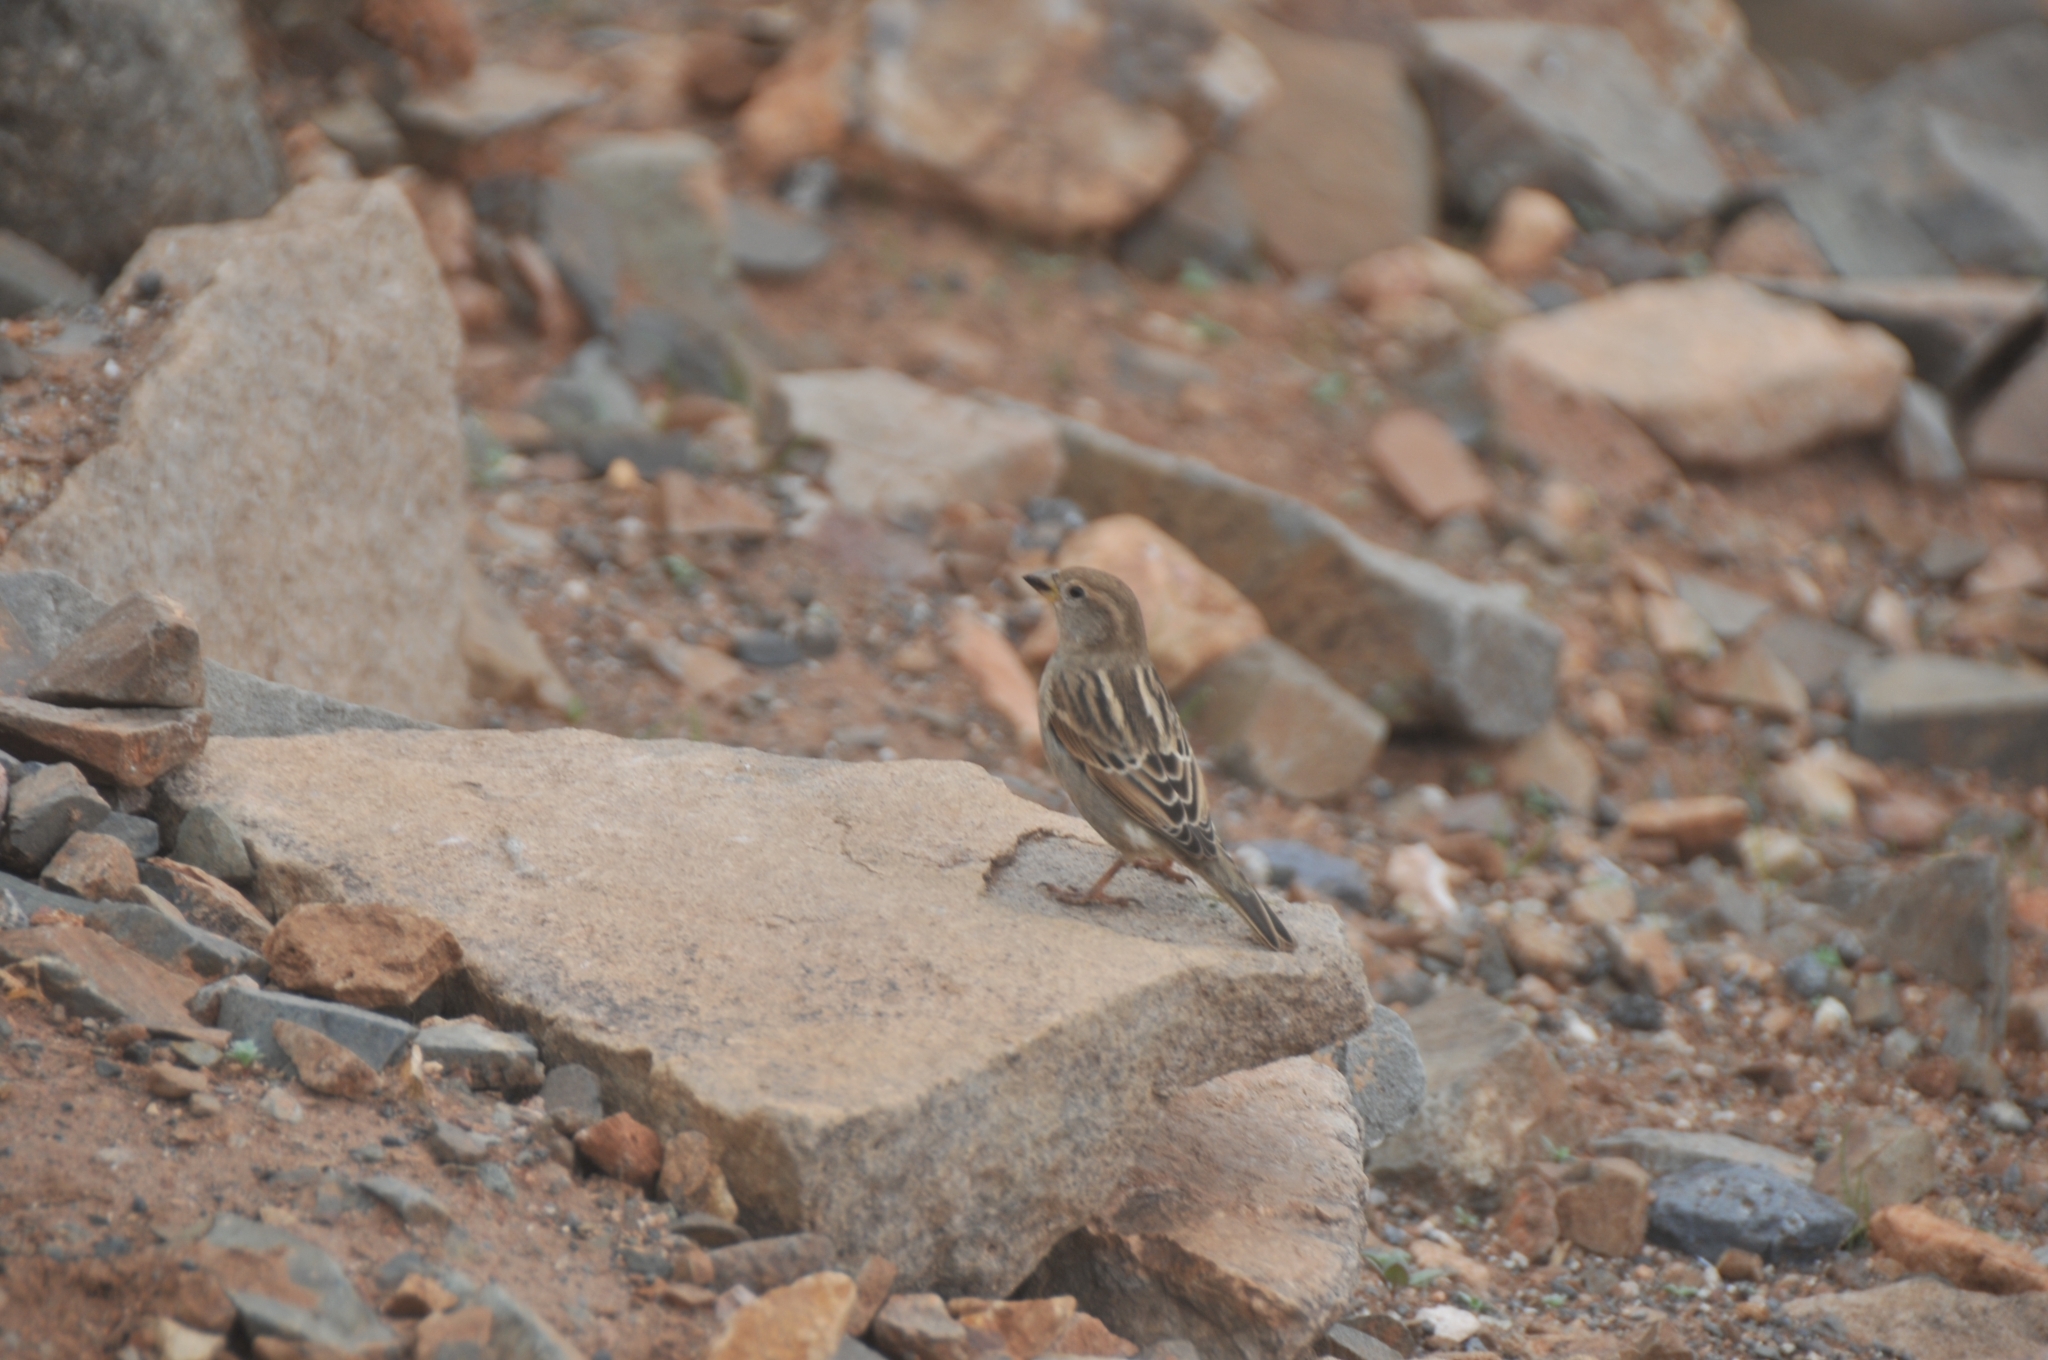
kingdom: Animalia
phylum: Chordata
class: Aves
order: Passeriformes
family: Passeridae
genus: Passer
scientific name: Passer hispaniolensis
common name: Spanish sparrow
